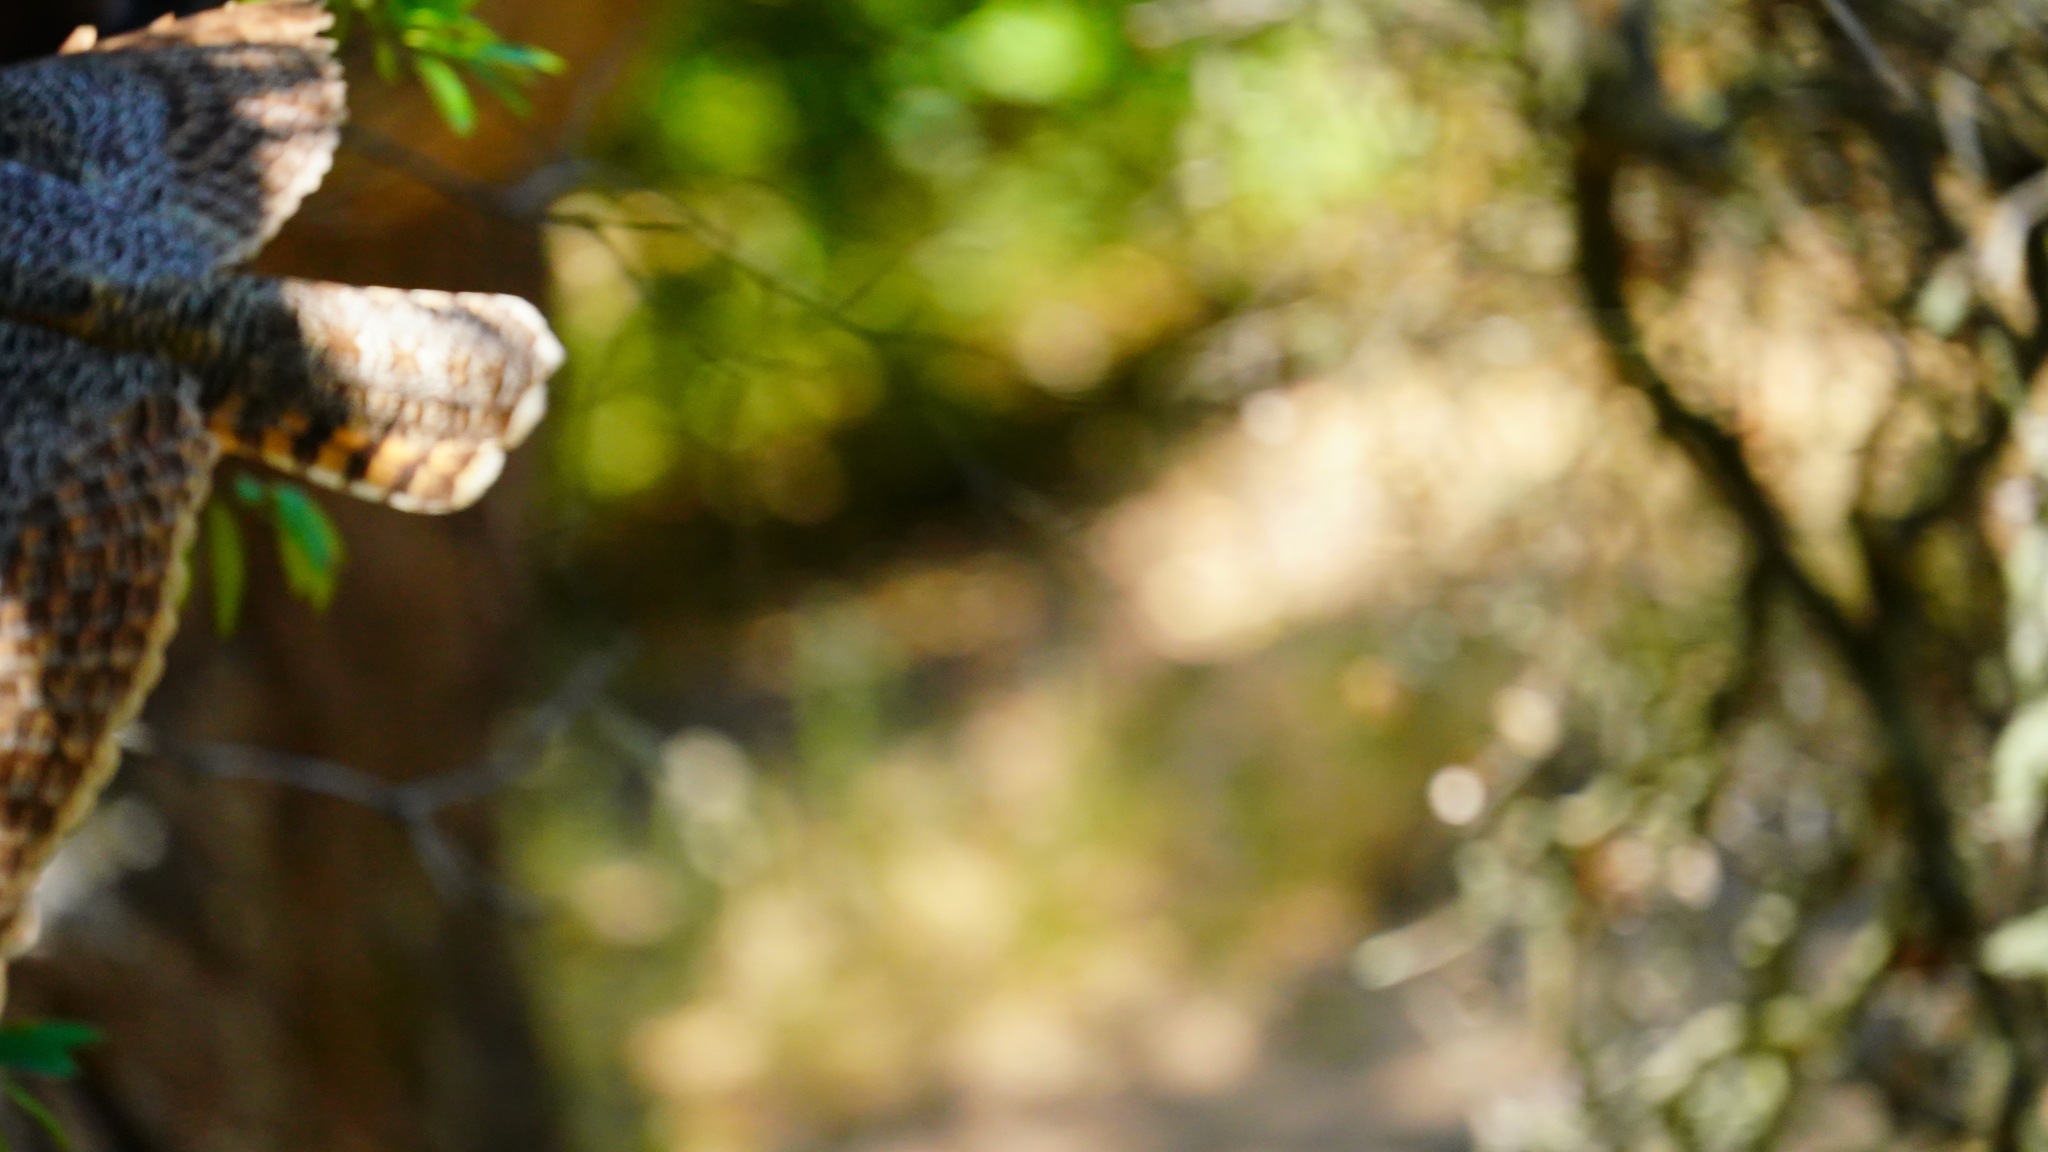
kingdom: Animalia
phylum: Chordata
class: Aves
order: Strigiformes
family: Strigidae
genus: Bubo
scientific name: Bubo virginianus
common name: Great horned owl
